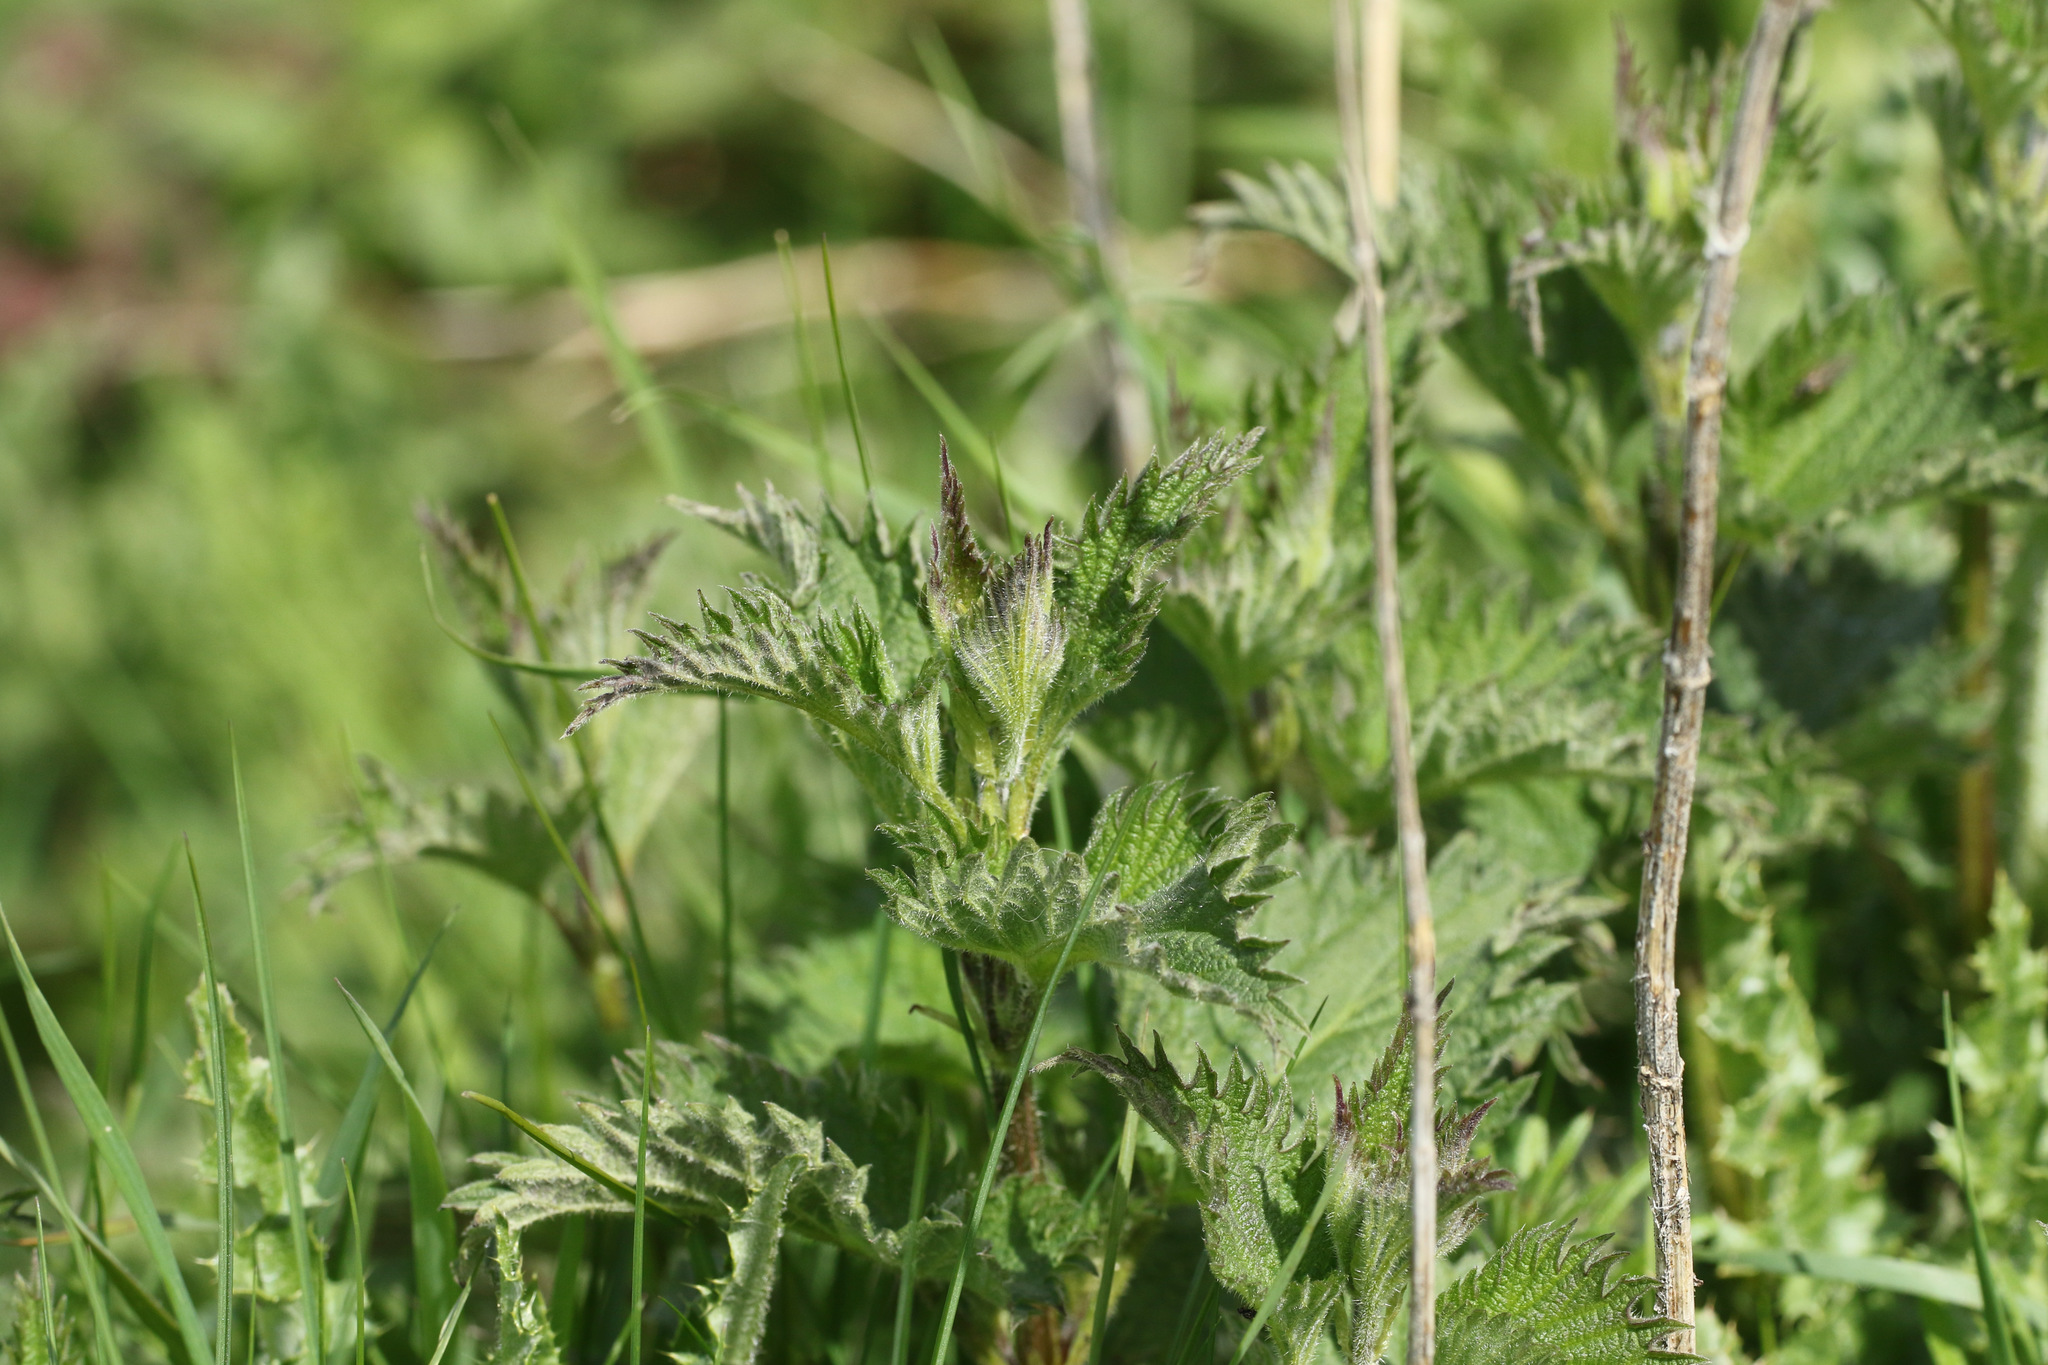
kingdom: Plantae
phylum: Tracheophyta
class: Magnoliopsida
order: Rosales
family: Urticaceae
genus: Urtica
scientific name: Urtica dioica
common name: Common nettle
